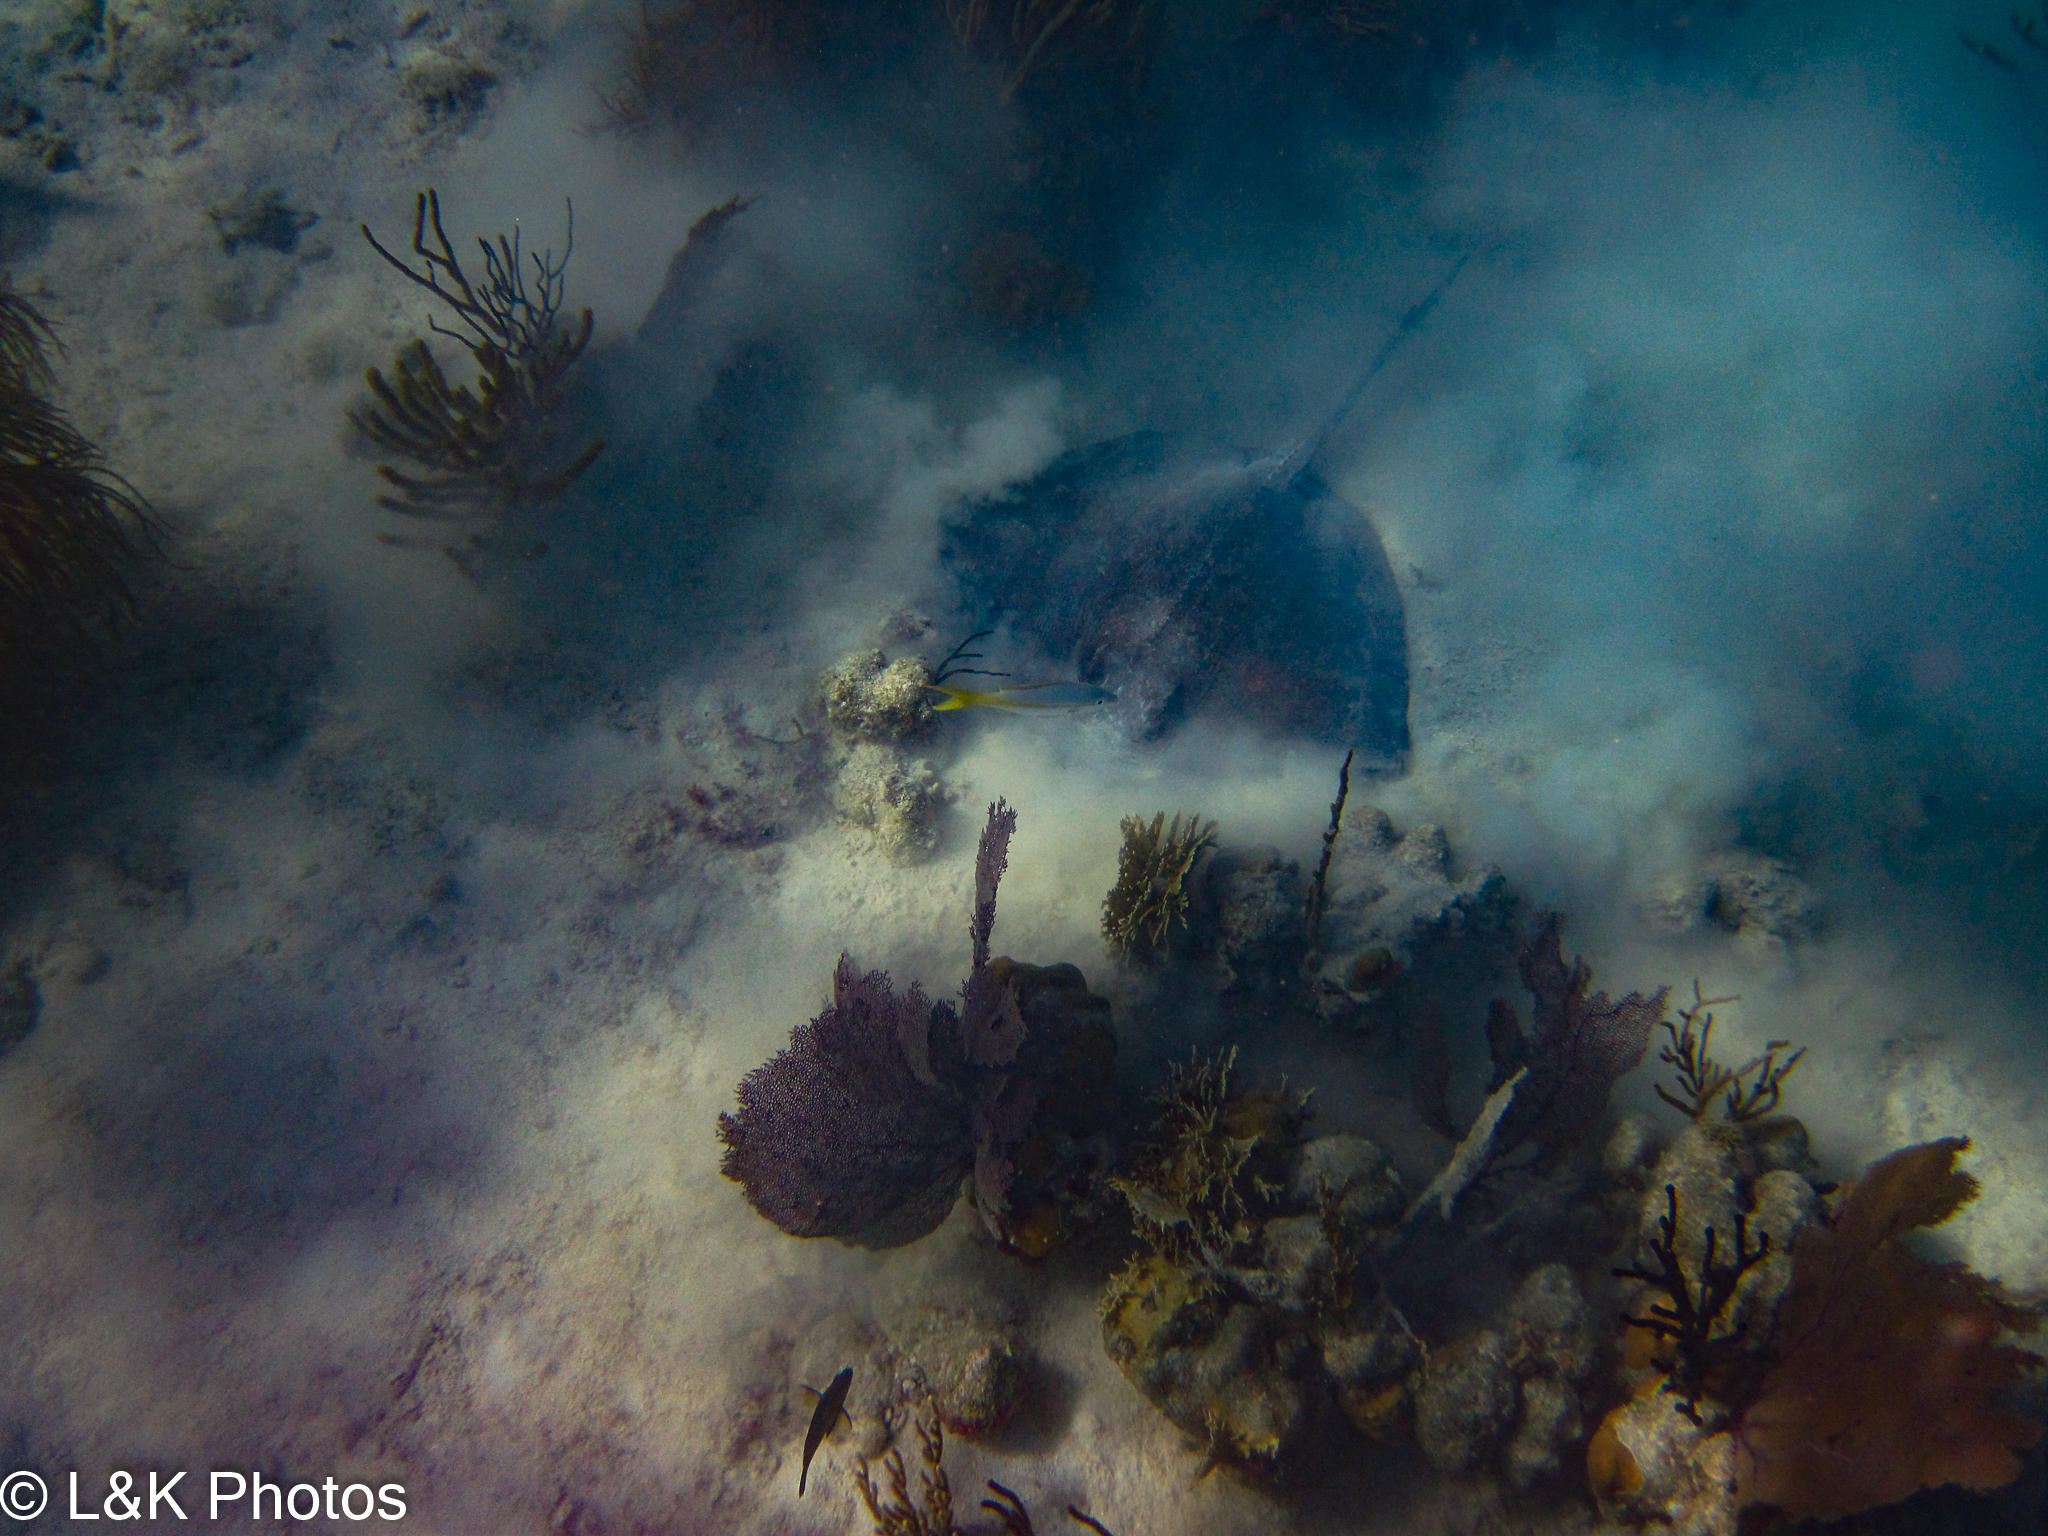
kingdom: Animalia
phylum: Chordata
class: Elasmobranchii
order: Myliobatiformes
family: Dasyatidae
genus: Hypanus
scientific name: Hypanus americanus
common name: Southern stingray
